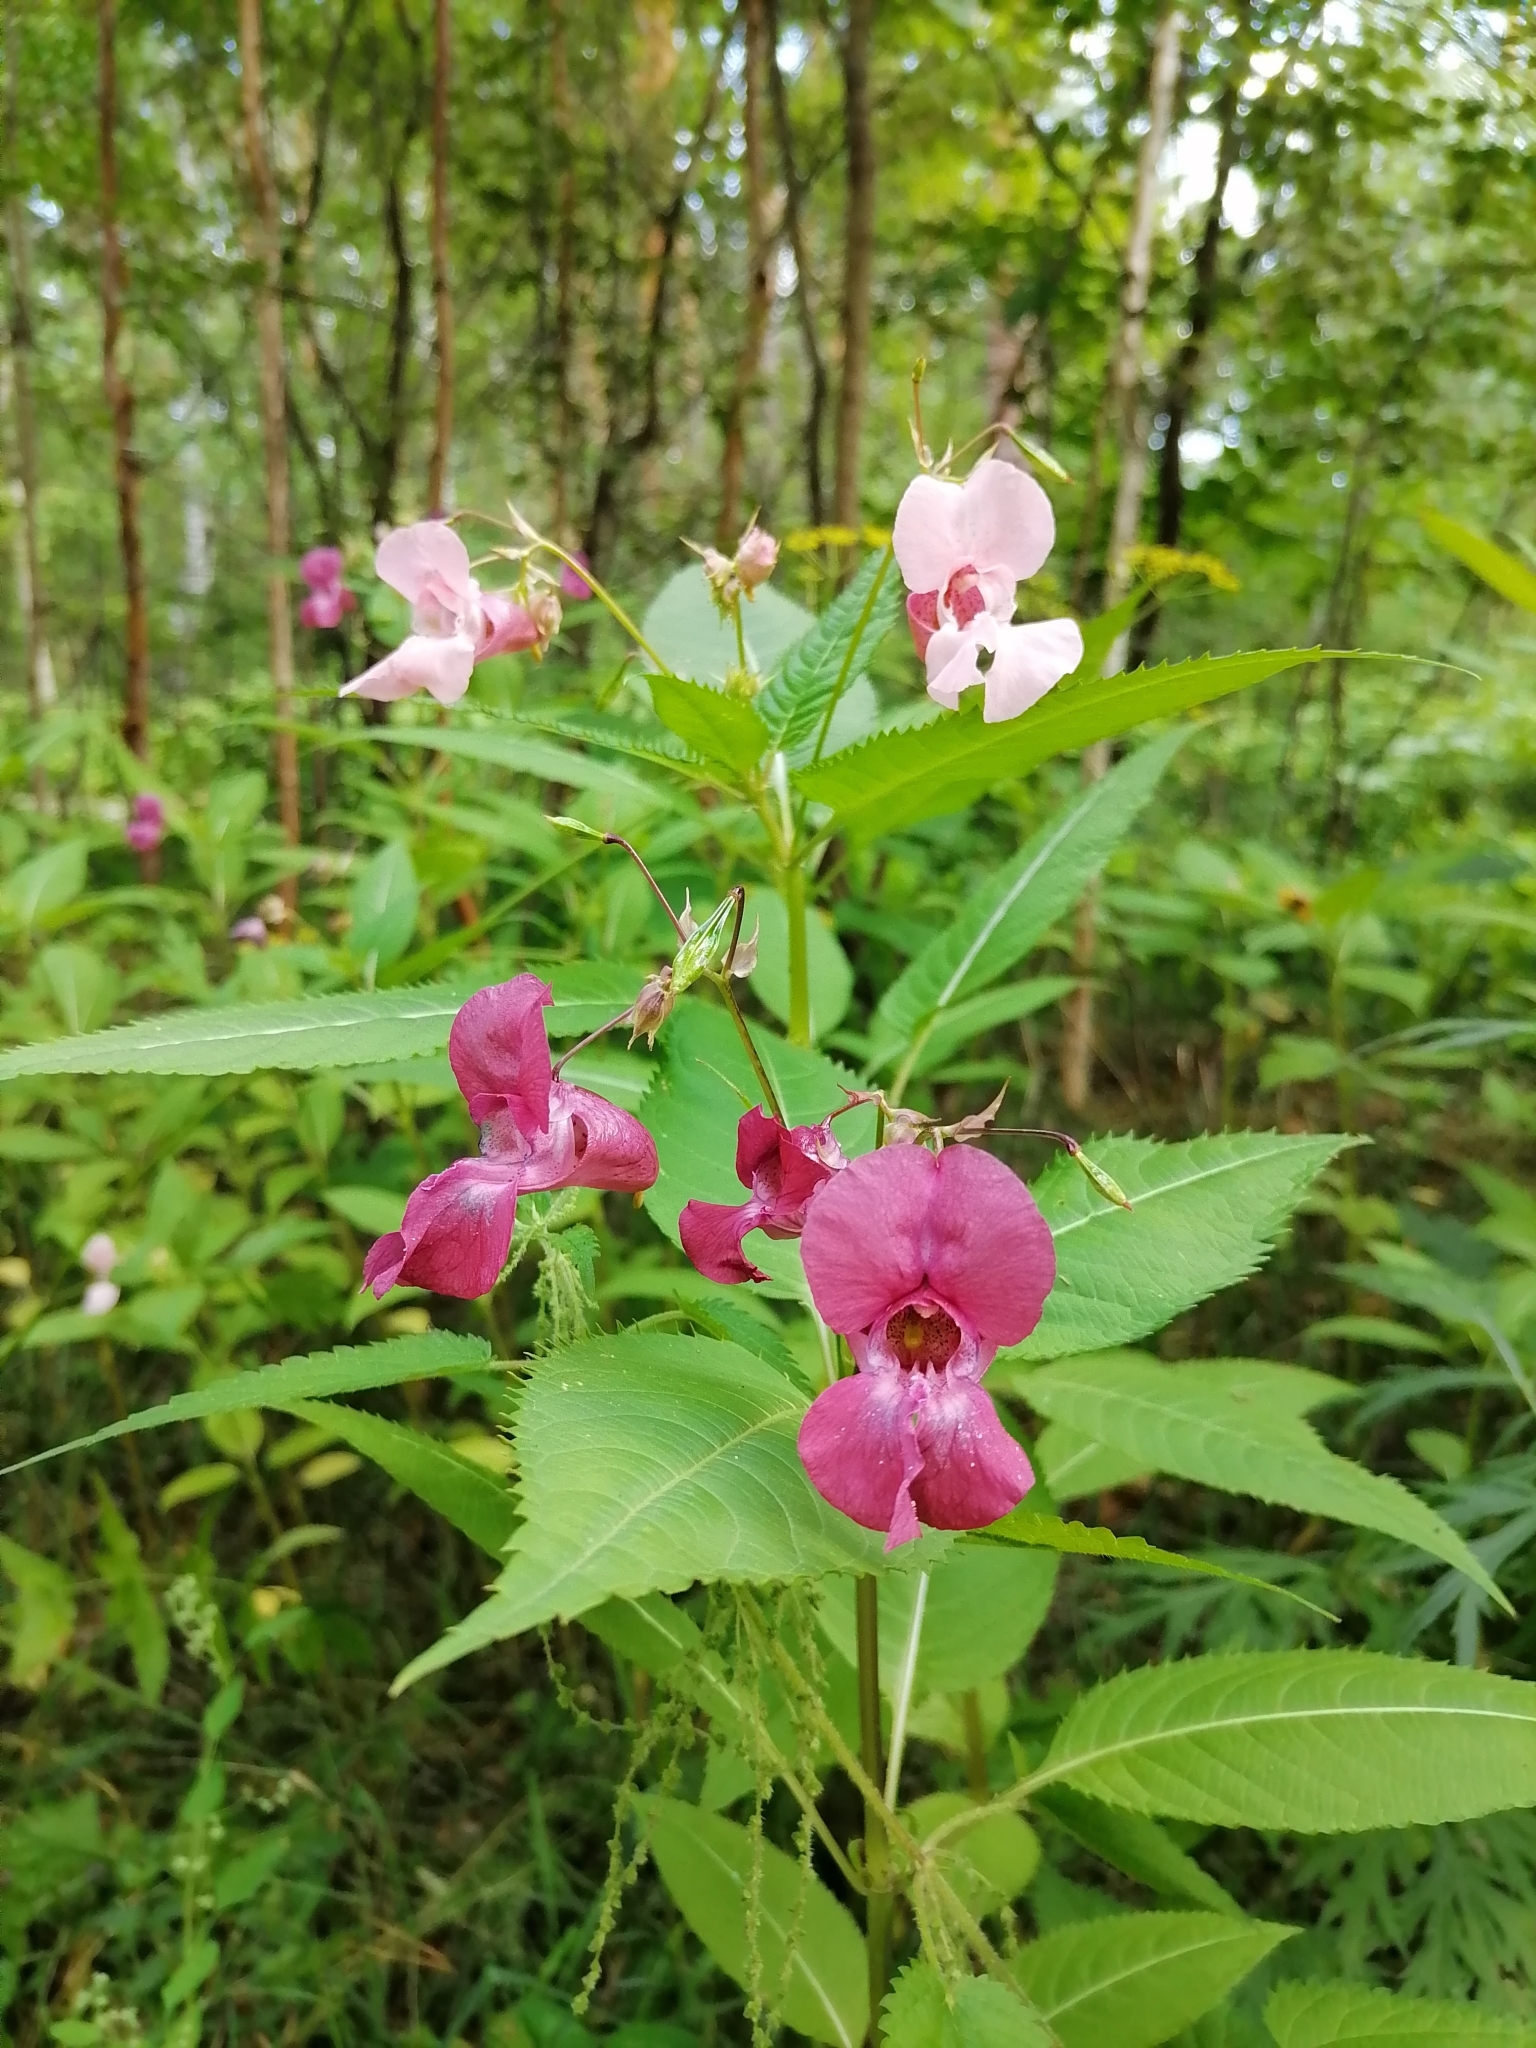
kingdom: Plantae
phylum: Tracheophyta
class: Magnoliopsida
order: Ericales
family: Balsaminaceae
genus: Impatiens
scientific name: Impatiens glandulifera
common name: Himalayan balsam
